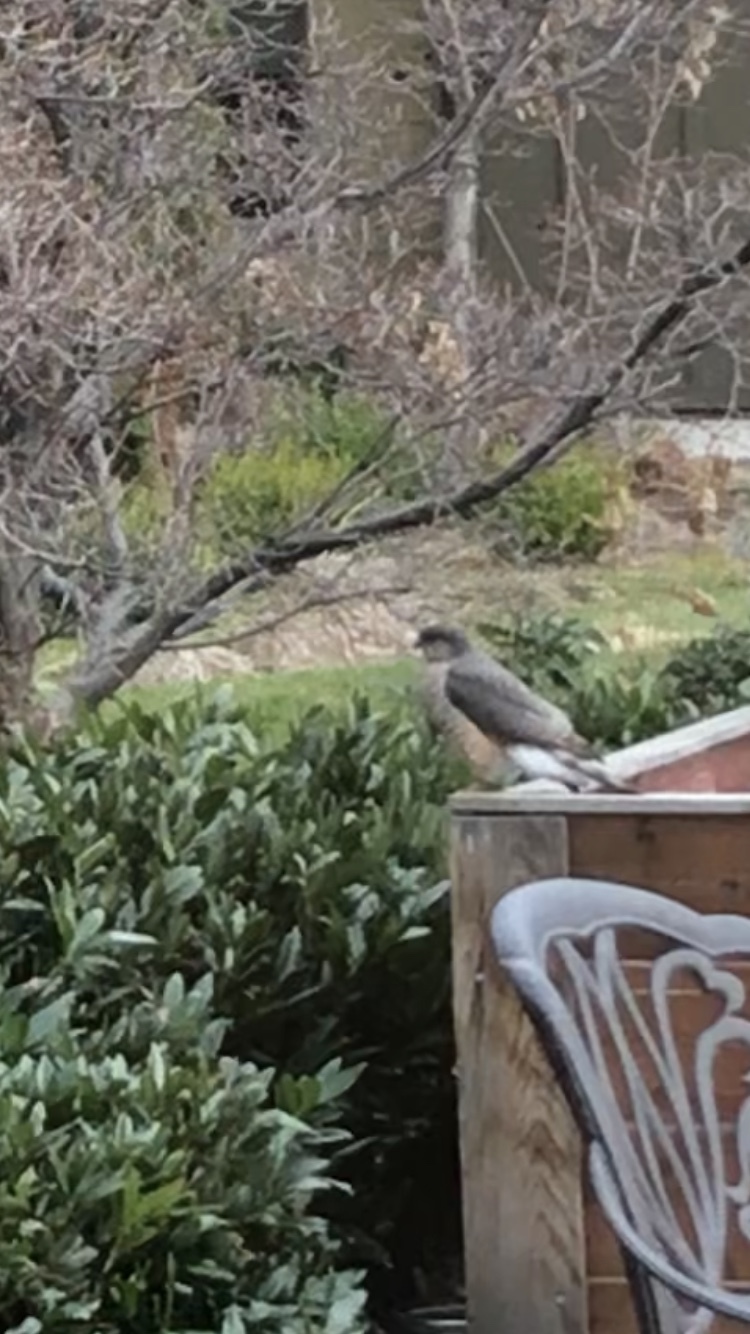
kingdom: Animalia
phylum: Chordata
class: Aves
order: Accipitriformes
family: Accipitridae
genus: Accipiter
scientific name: Accipiter striatus
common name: Sharp-shinned hawk
